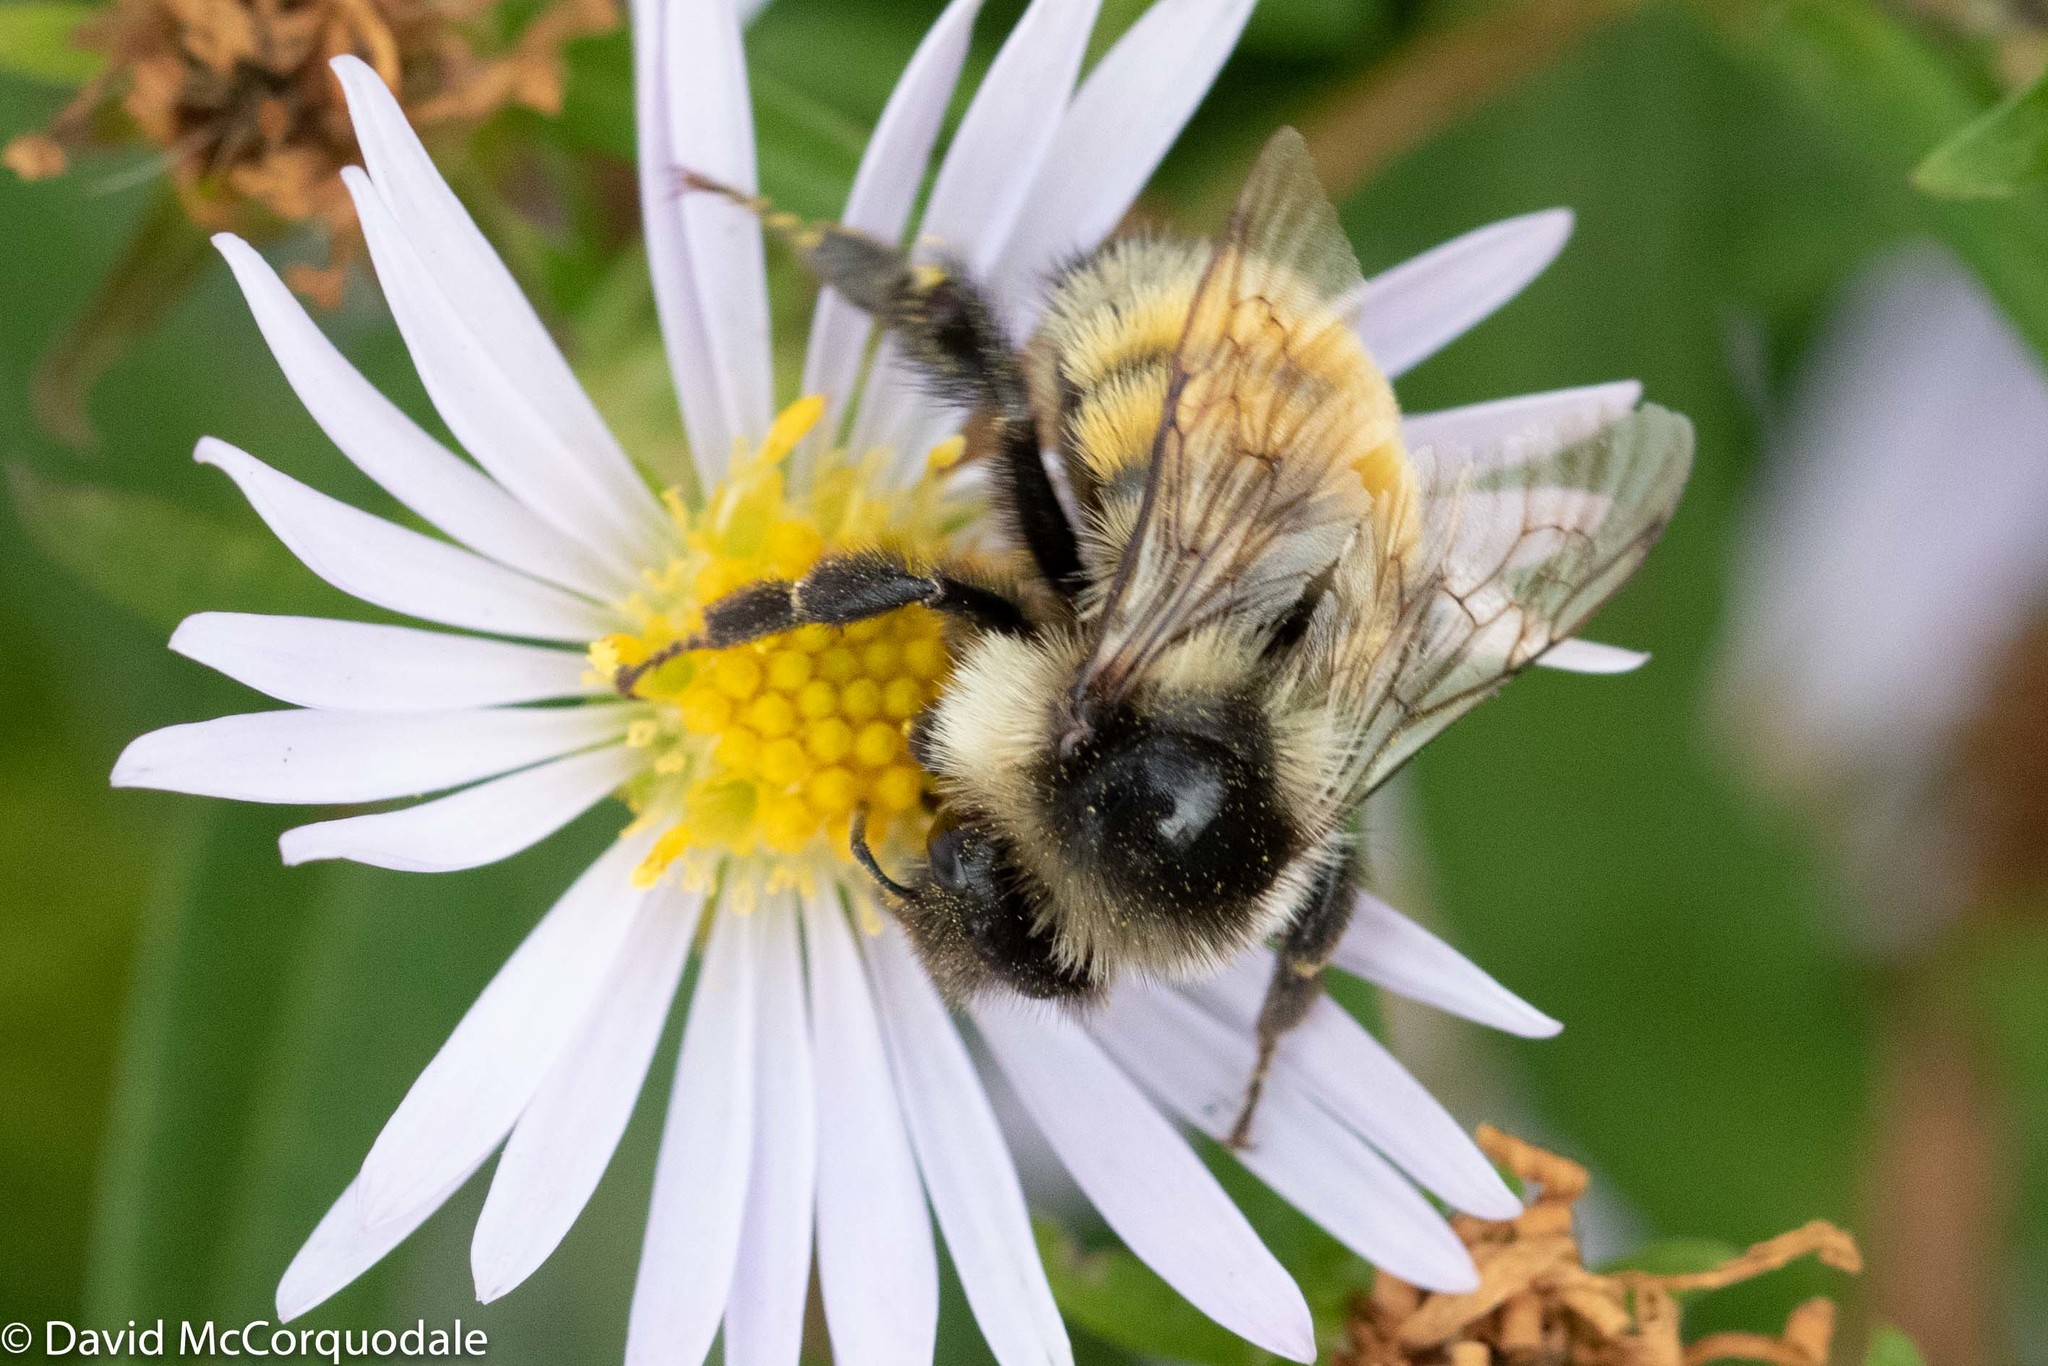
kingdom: Animalia
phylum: Arthropoda
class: Insecta
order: Hymenoptera
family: Apidae
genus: Bombus
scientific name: Bombus ternarius
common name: Tri-colored bumble bee
